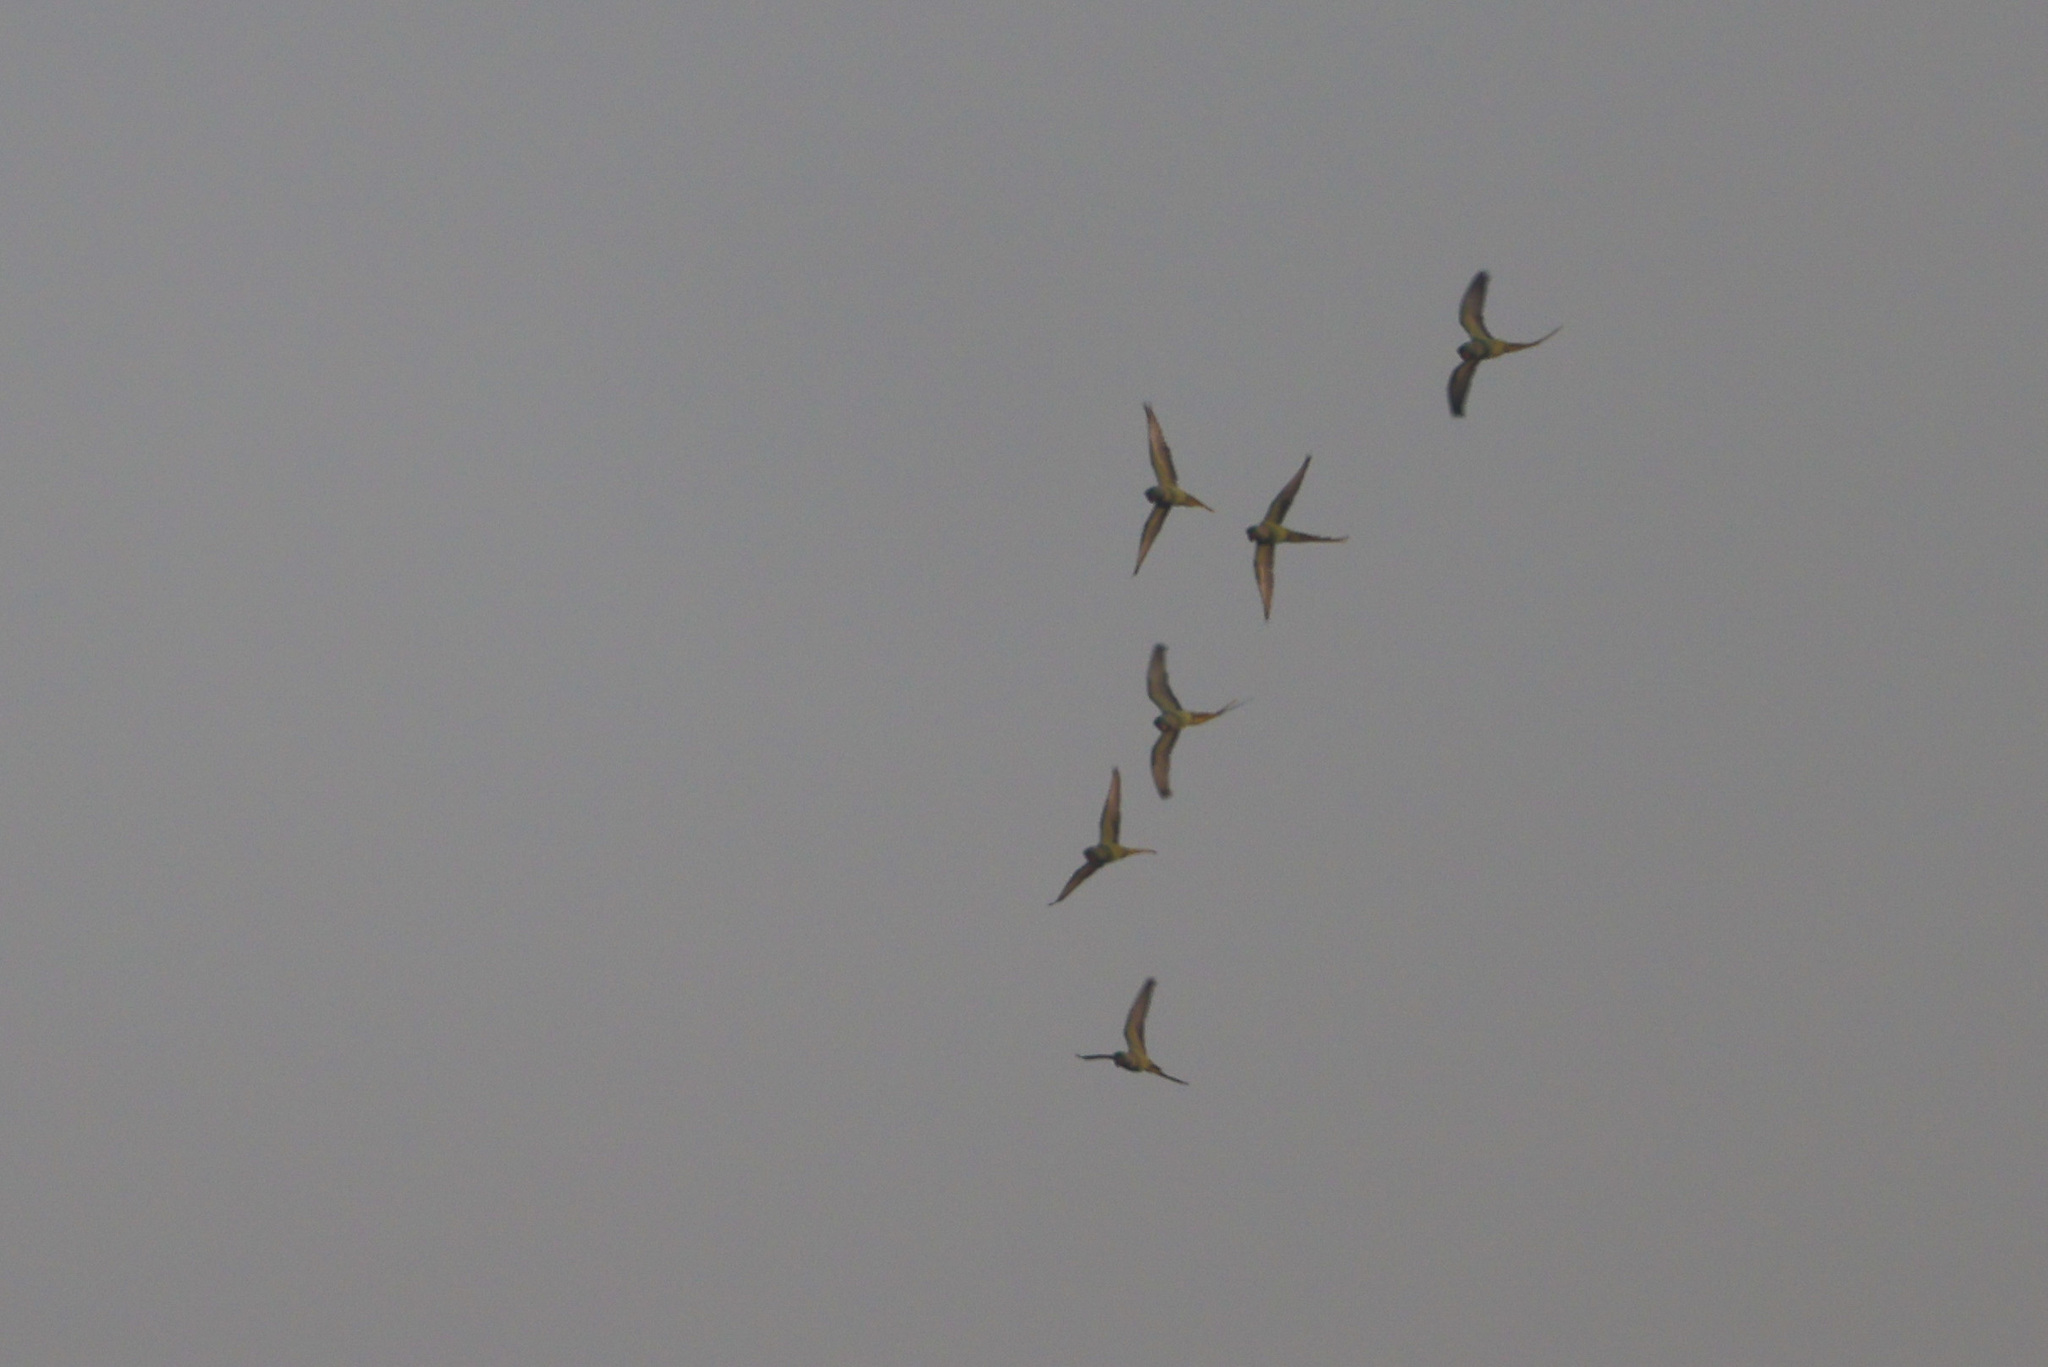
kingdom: Animalia
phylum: Chordata
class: Aves
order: Psittaciformes
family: Psittacidae
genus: Psittacula
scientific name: Psittacula krameri
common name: Rose-ringed parakeet
